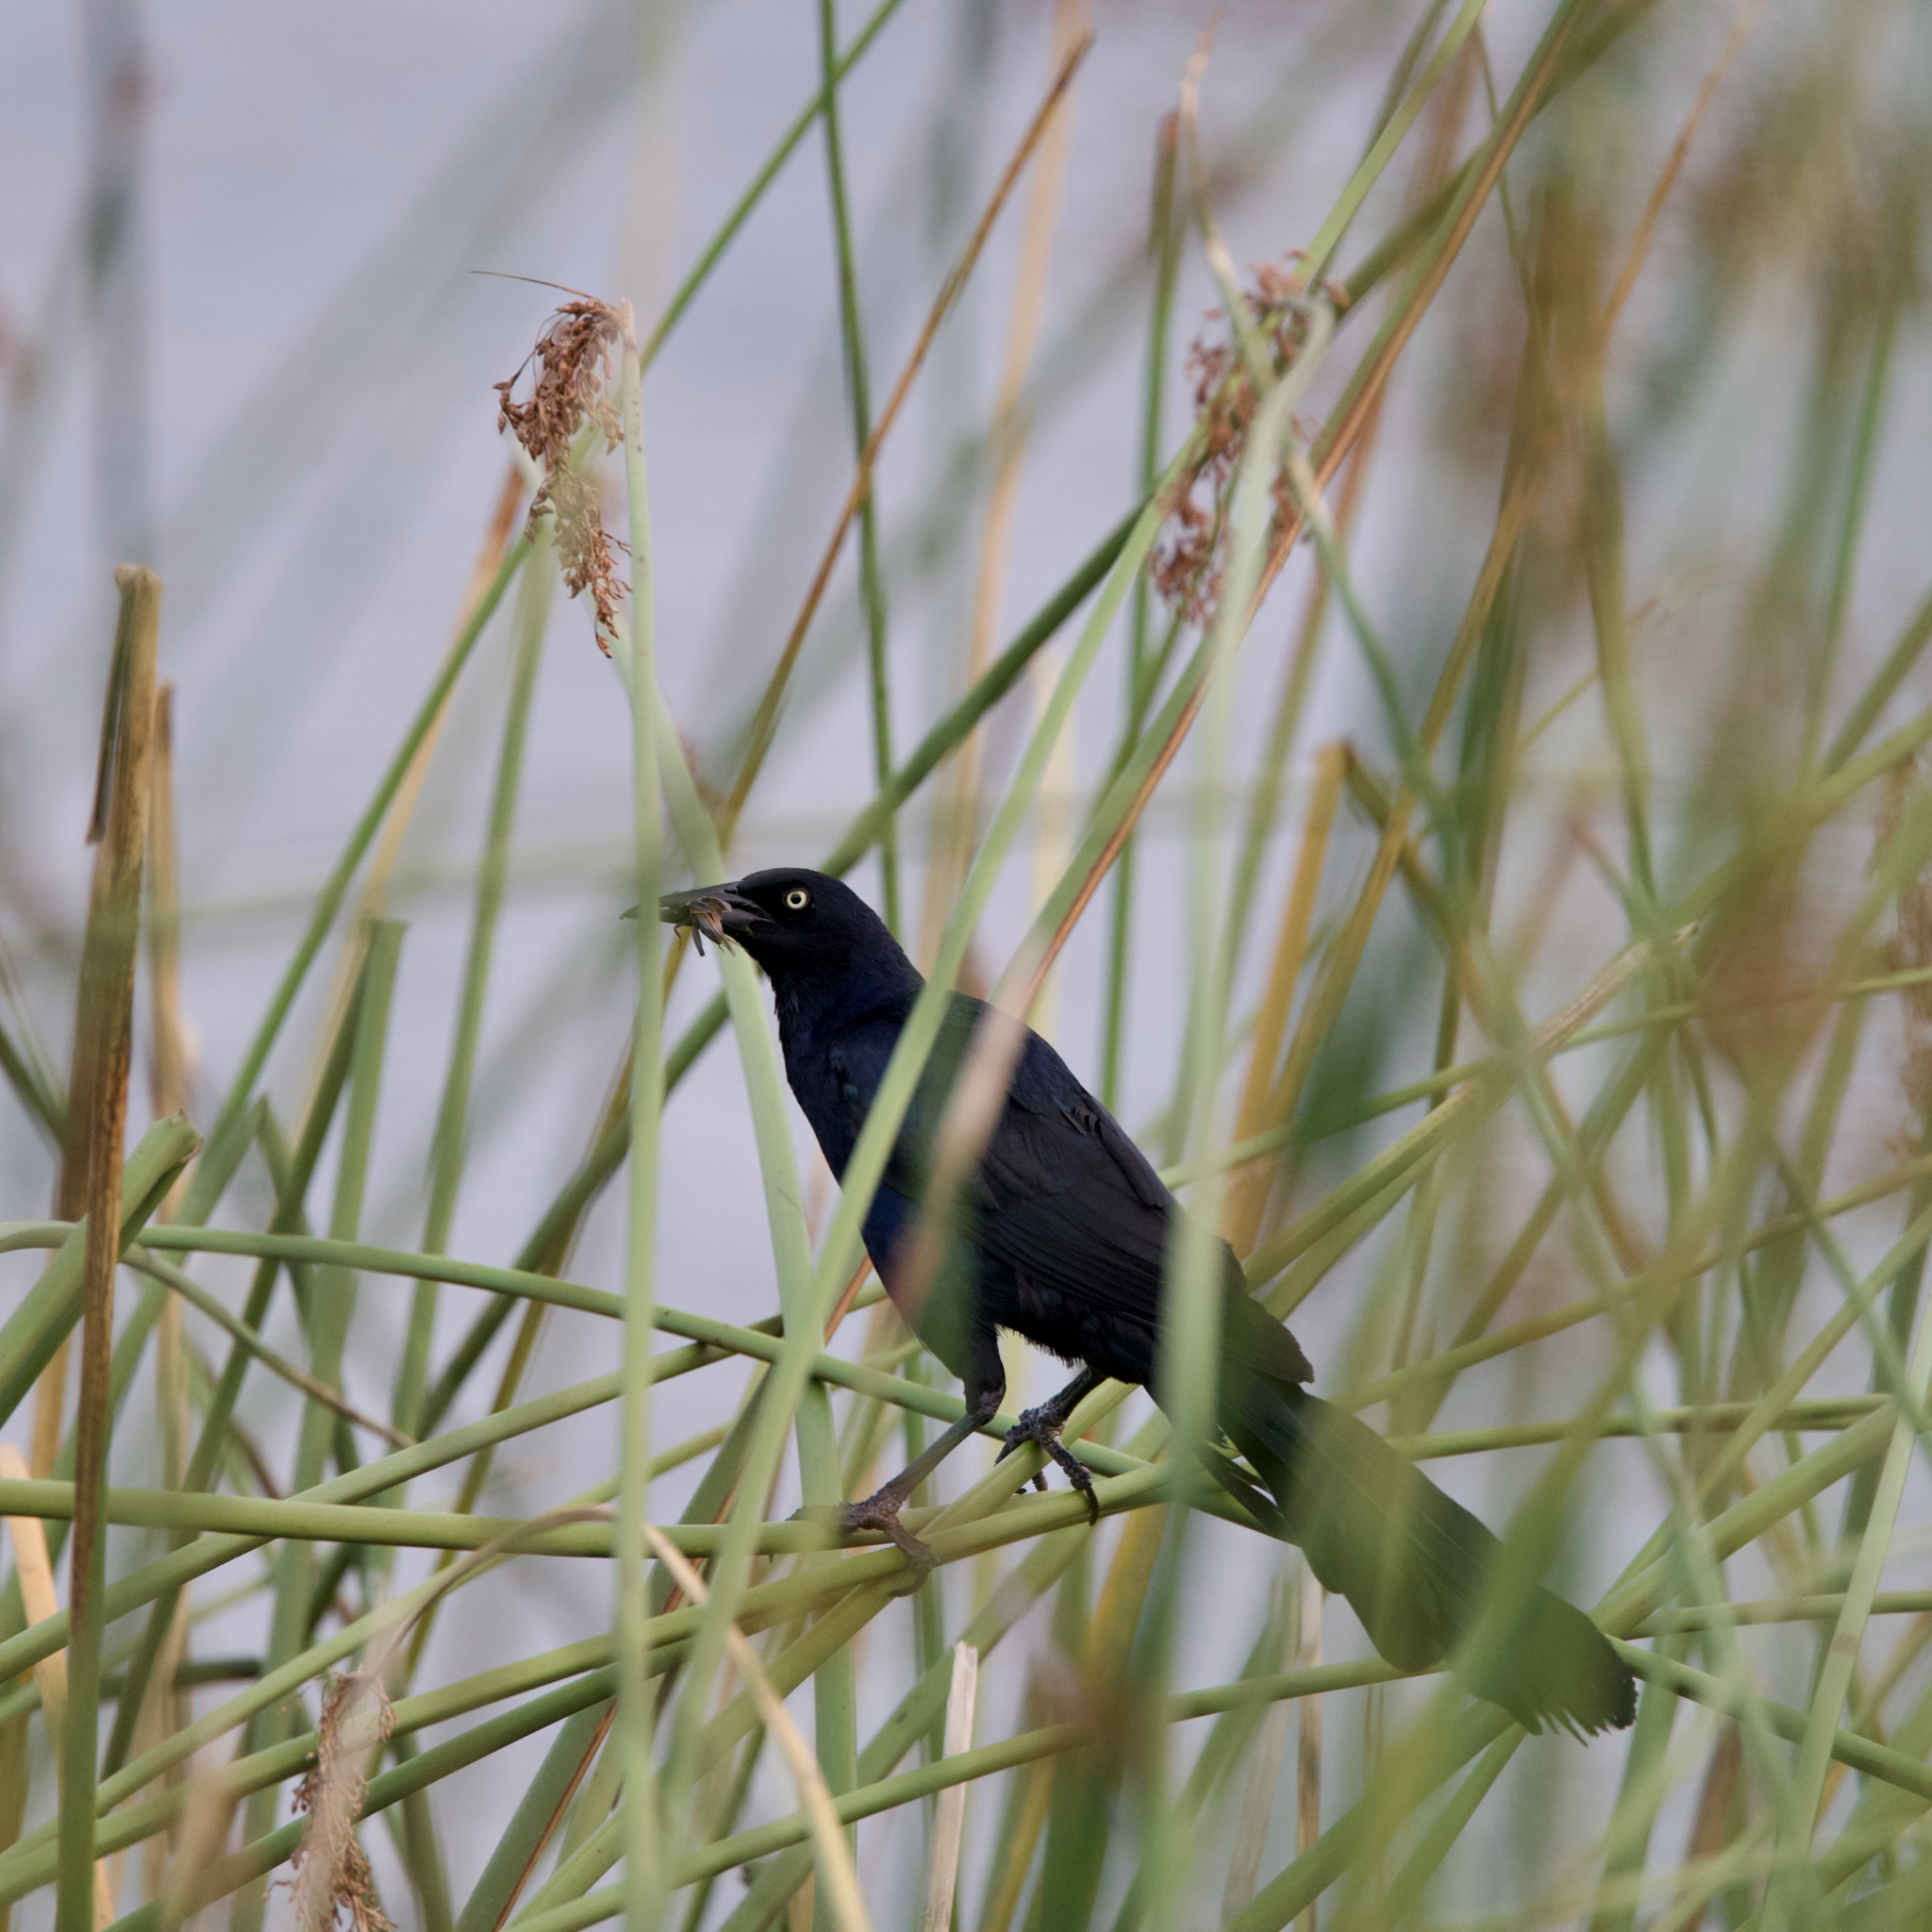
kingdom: Animalia
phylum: Chordata
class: Aves
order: Passeriformes
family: Icteridae
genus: Quiscalus
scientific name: Quiscalus mexicanus
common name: Great-tailed grackle
